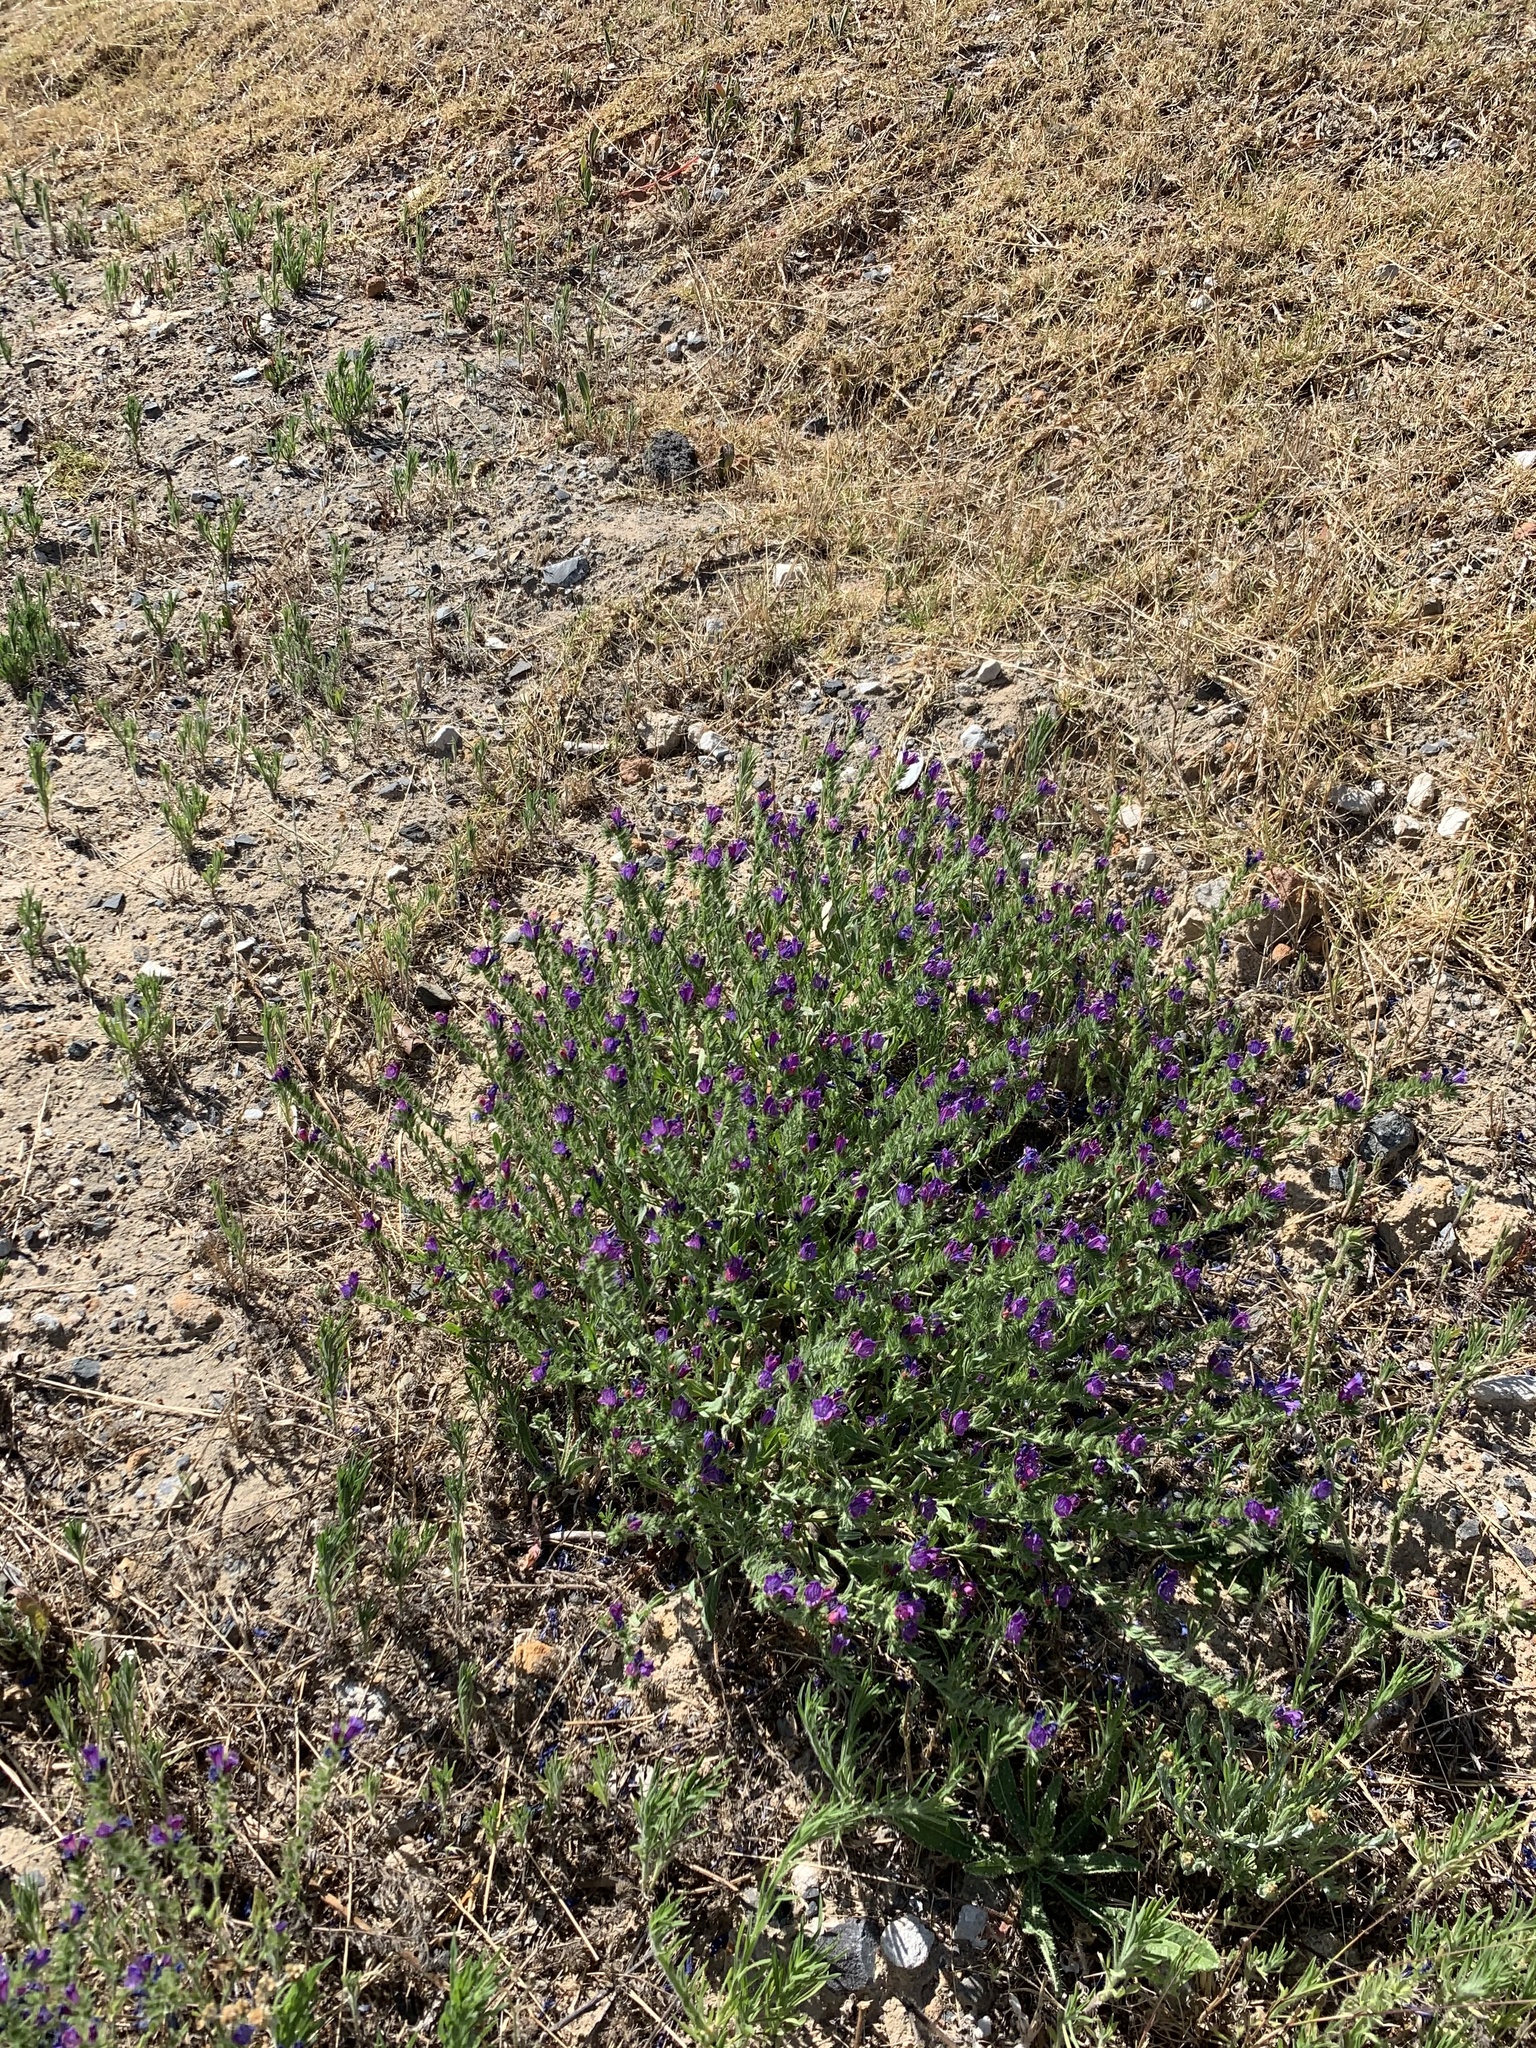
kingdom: Plantae
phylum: Tracheophyta
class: Magnoliopsida
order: Boraginales
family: Boraginaceae
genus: Echium
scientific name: Echium plantagineum
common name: Purple viper's-bugloss
